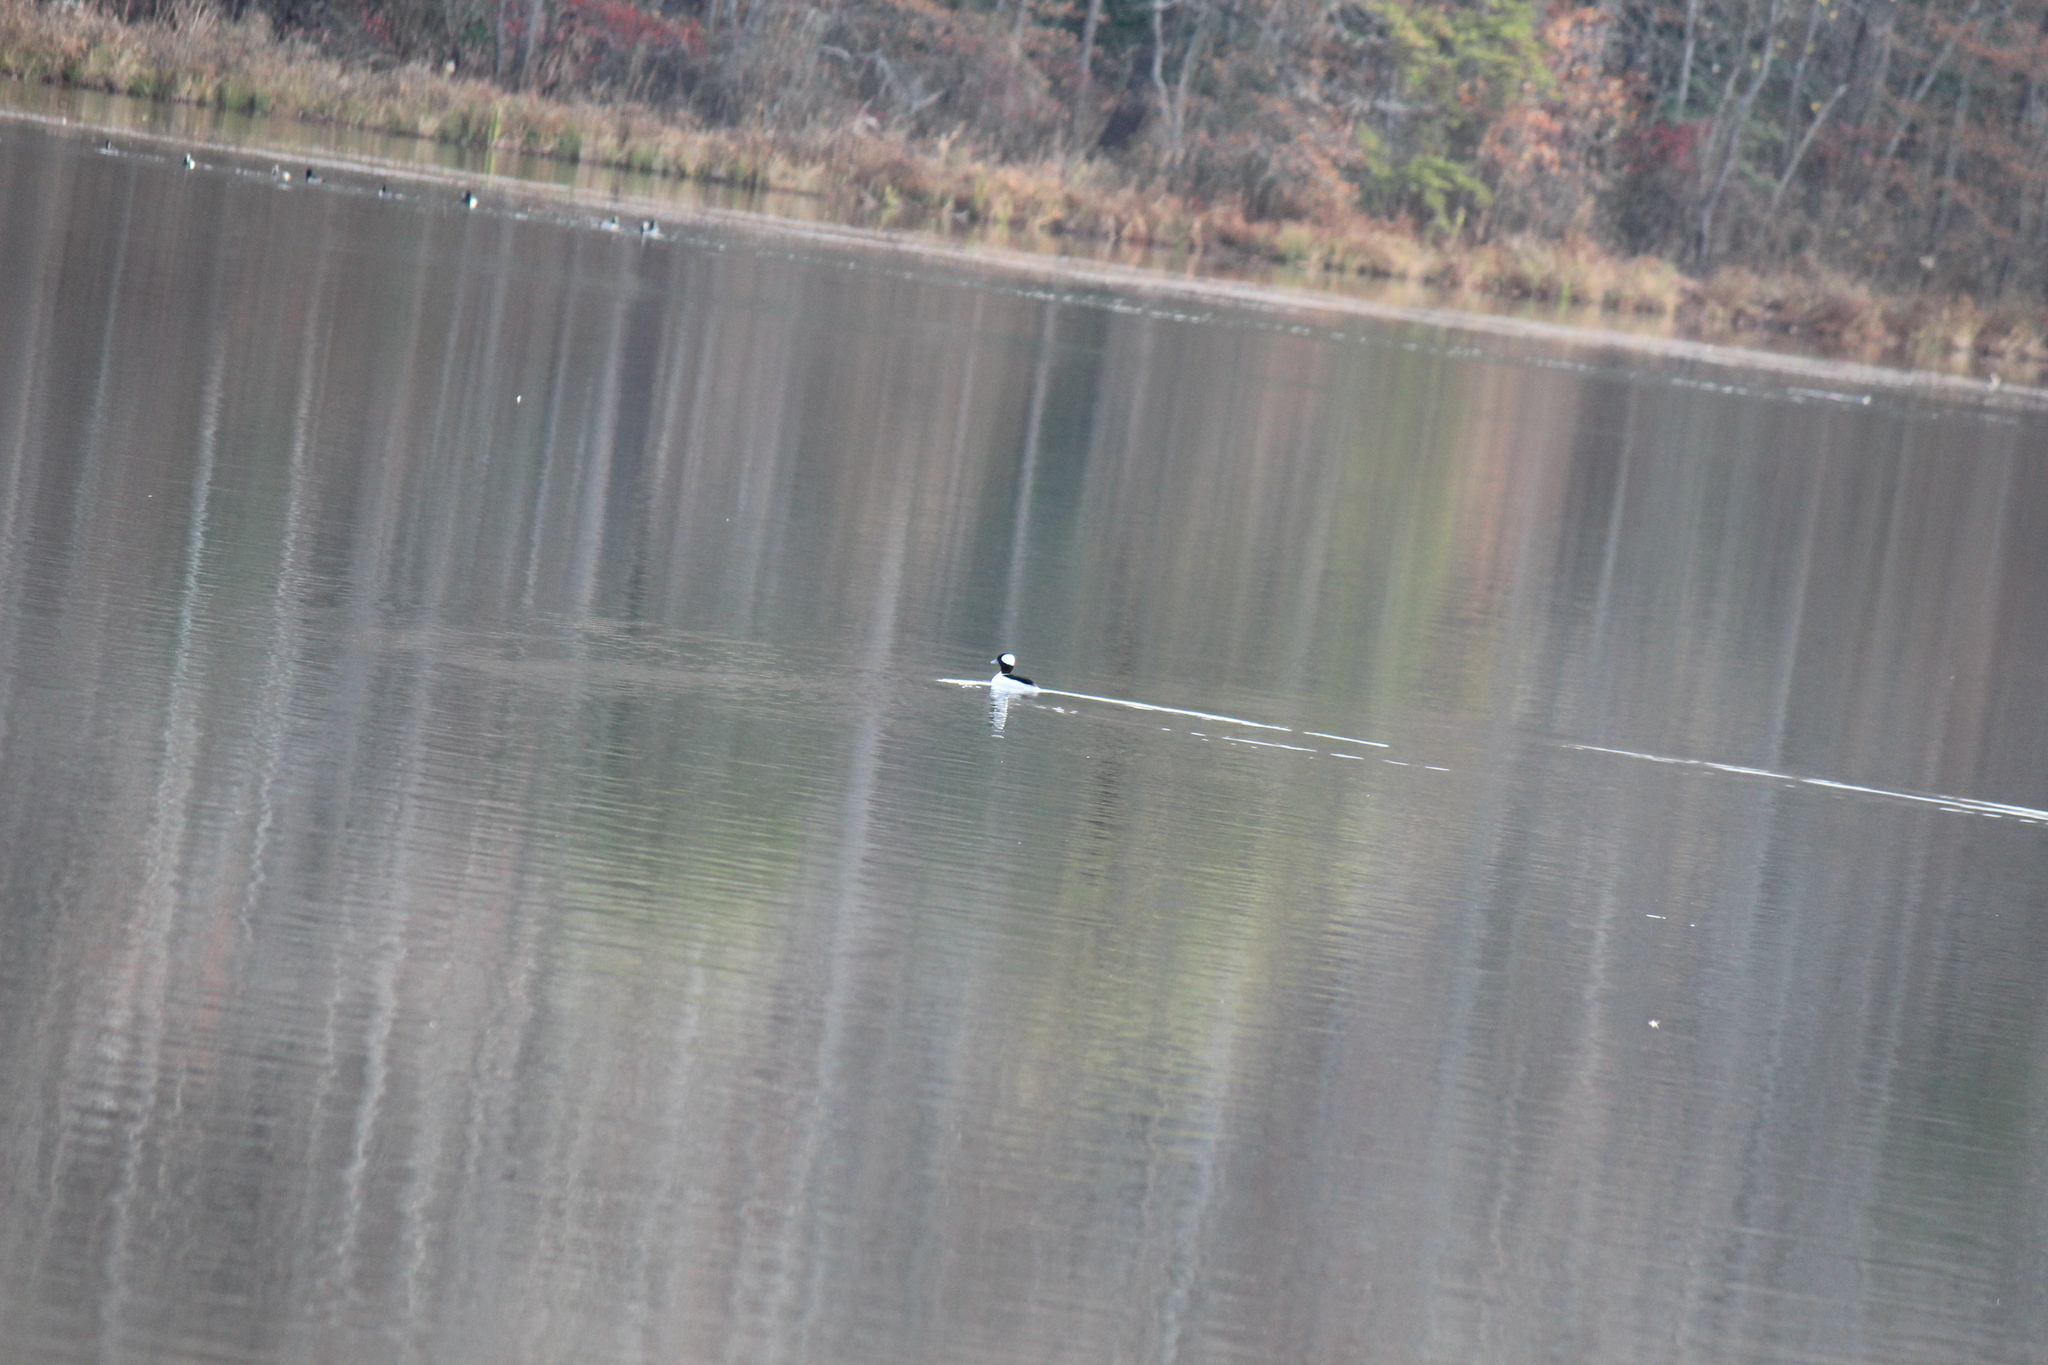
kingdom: Animalia
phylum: Chordata
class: Aves
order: Anseriformes
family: Anatidae
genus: Bucephala
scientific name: Bucephala albeola
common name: Bufflehead
